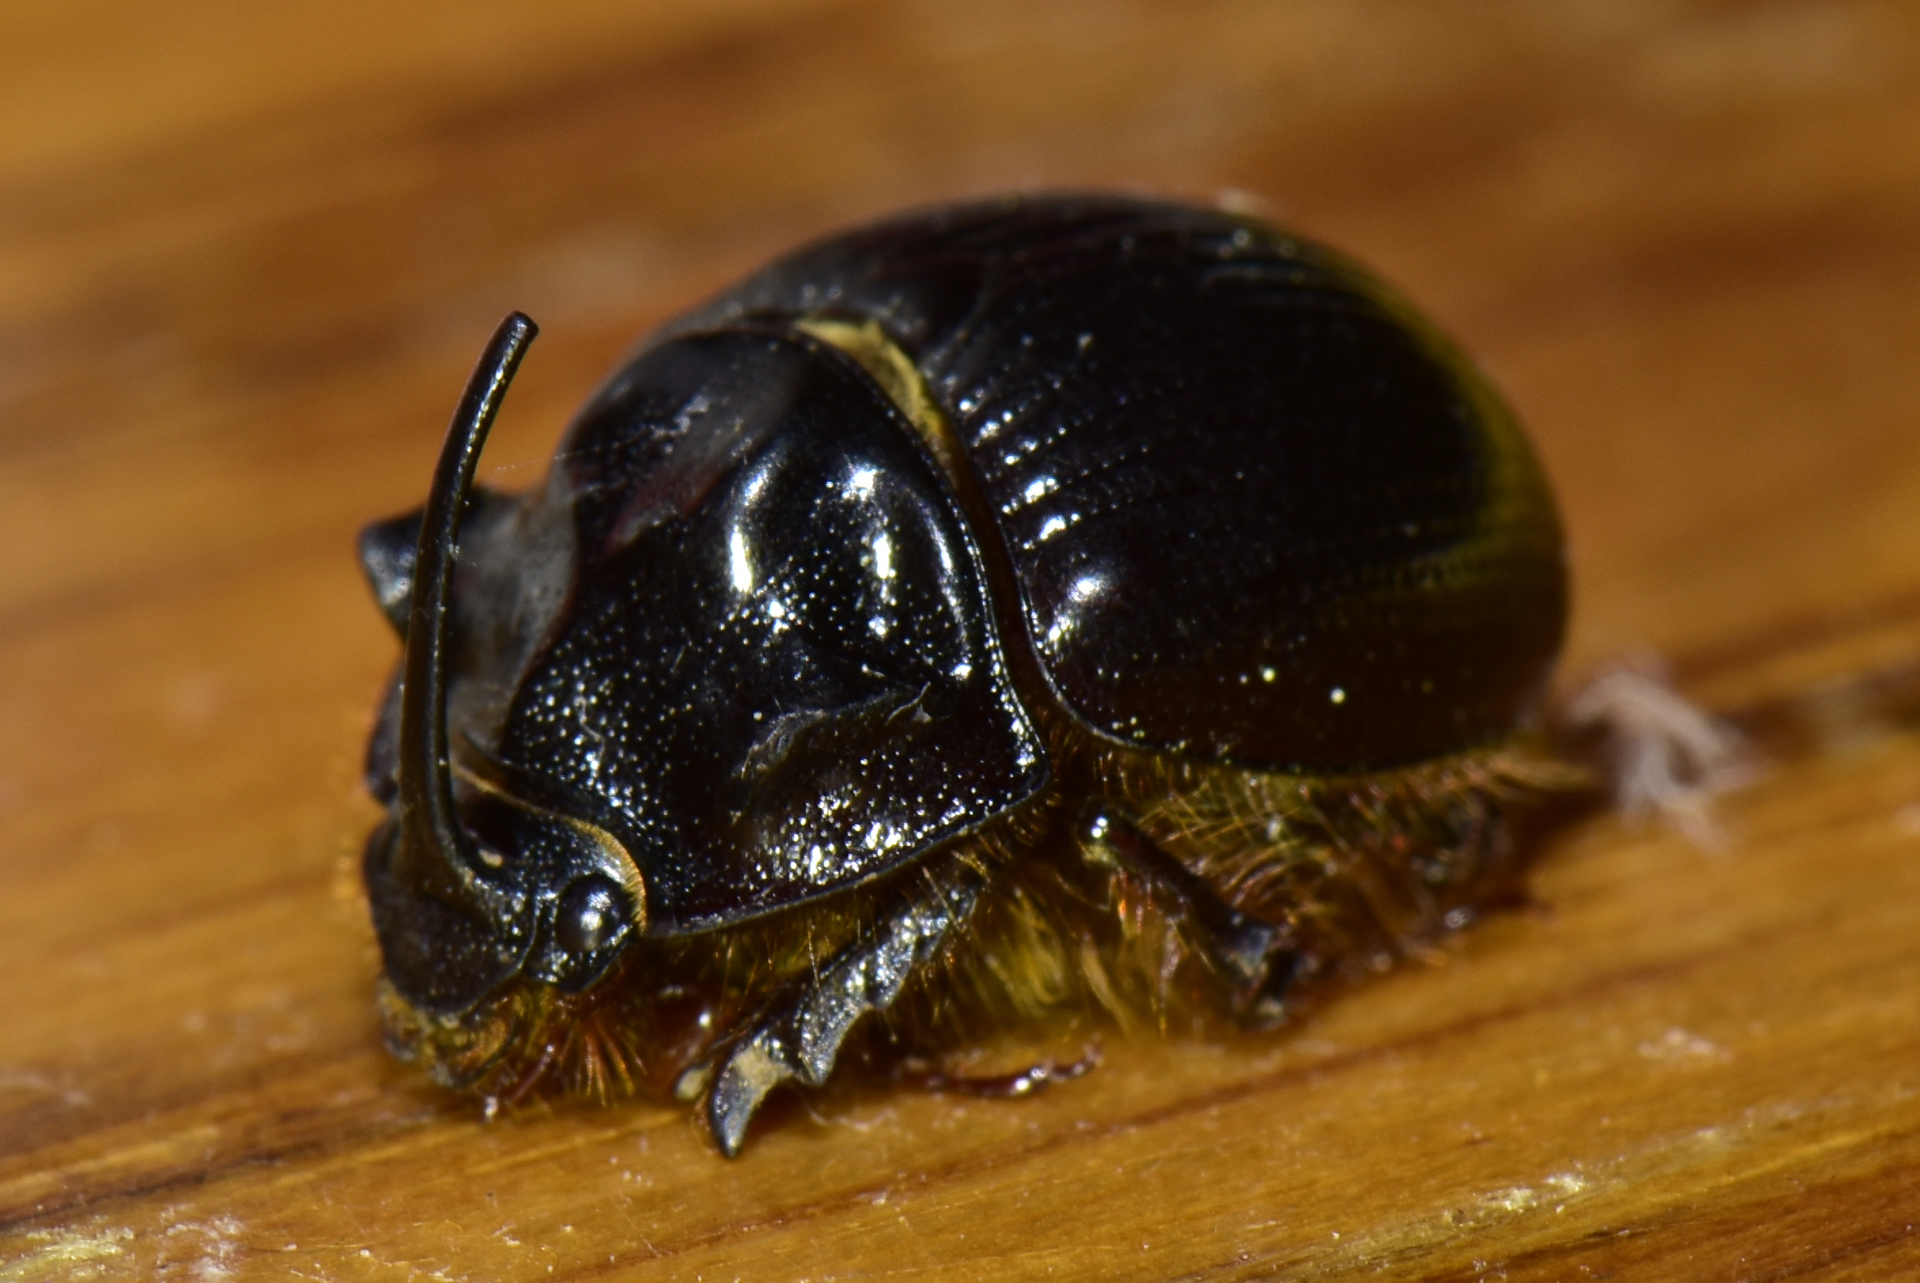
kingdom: Animalia
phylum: Arthropoda
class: Insecta
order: Coleoptera
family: Geotrupidae
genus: Odonteus
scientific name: Odonteus obesus
